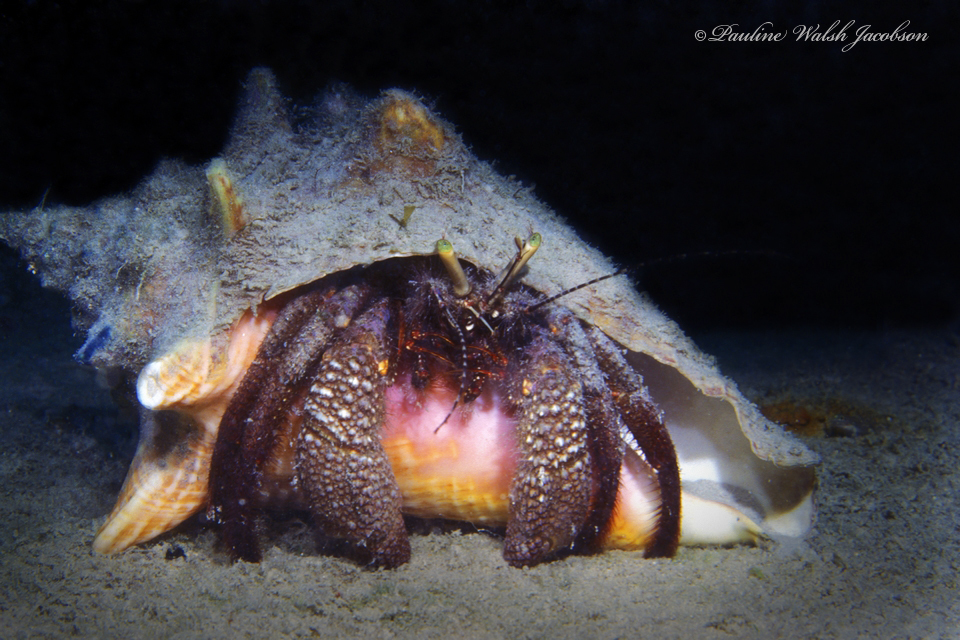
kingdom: Animalia
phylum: Arthropoda
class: Malacostraca
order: Decapoda
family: Diogenidae
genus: Petrochirus
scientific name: Petrochirus diogenes
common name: Giant hermit crab
